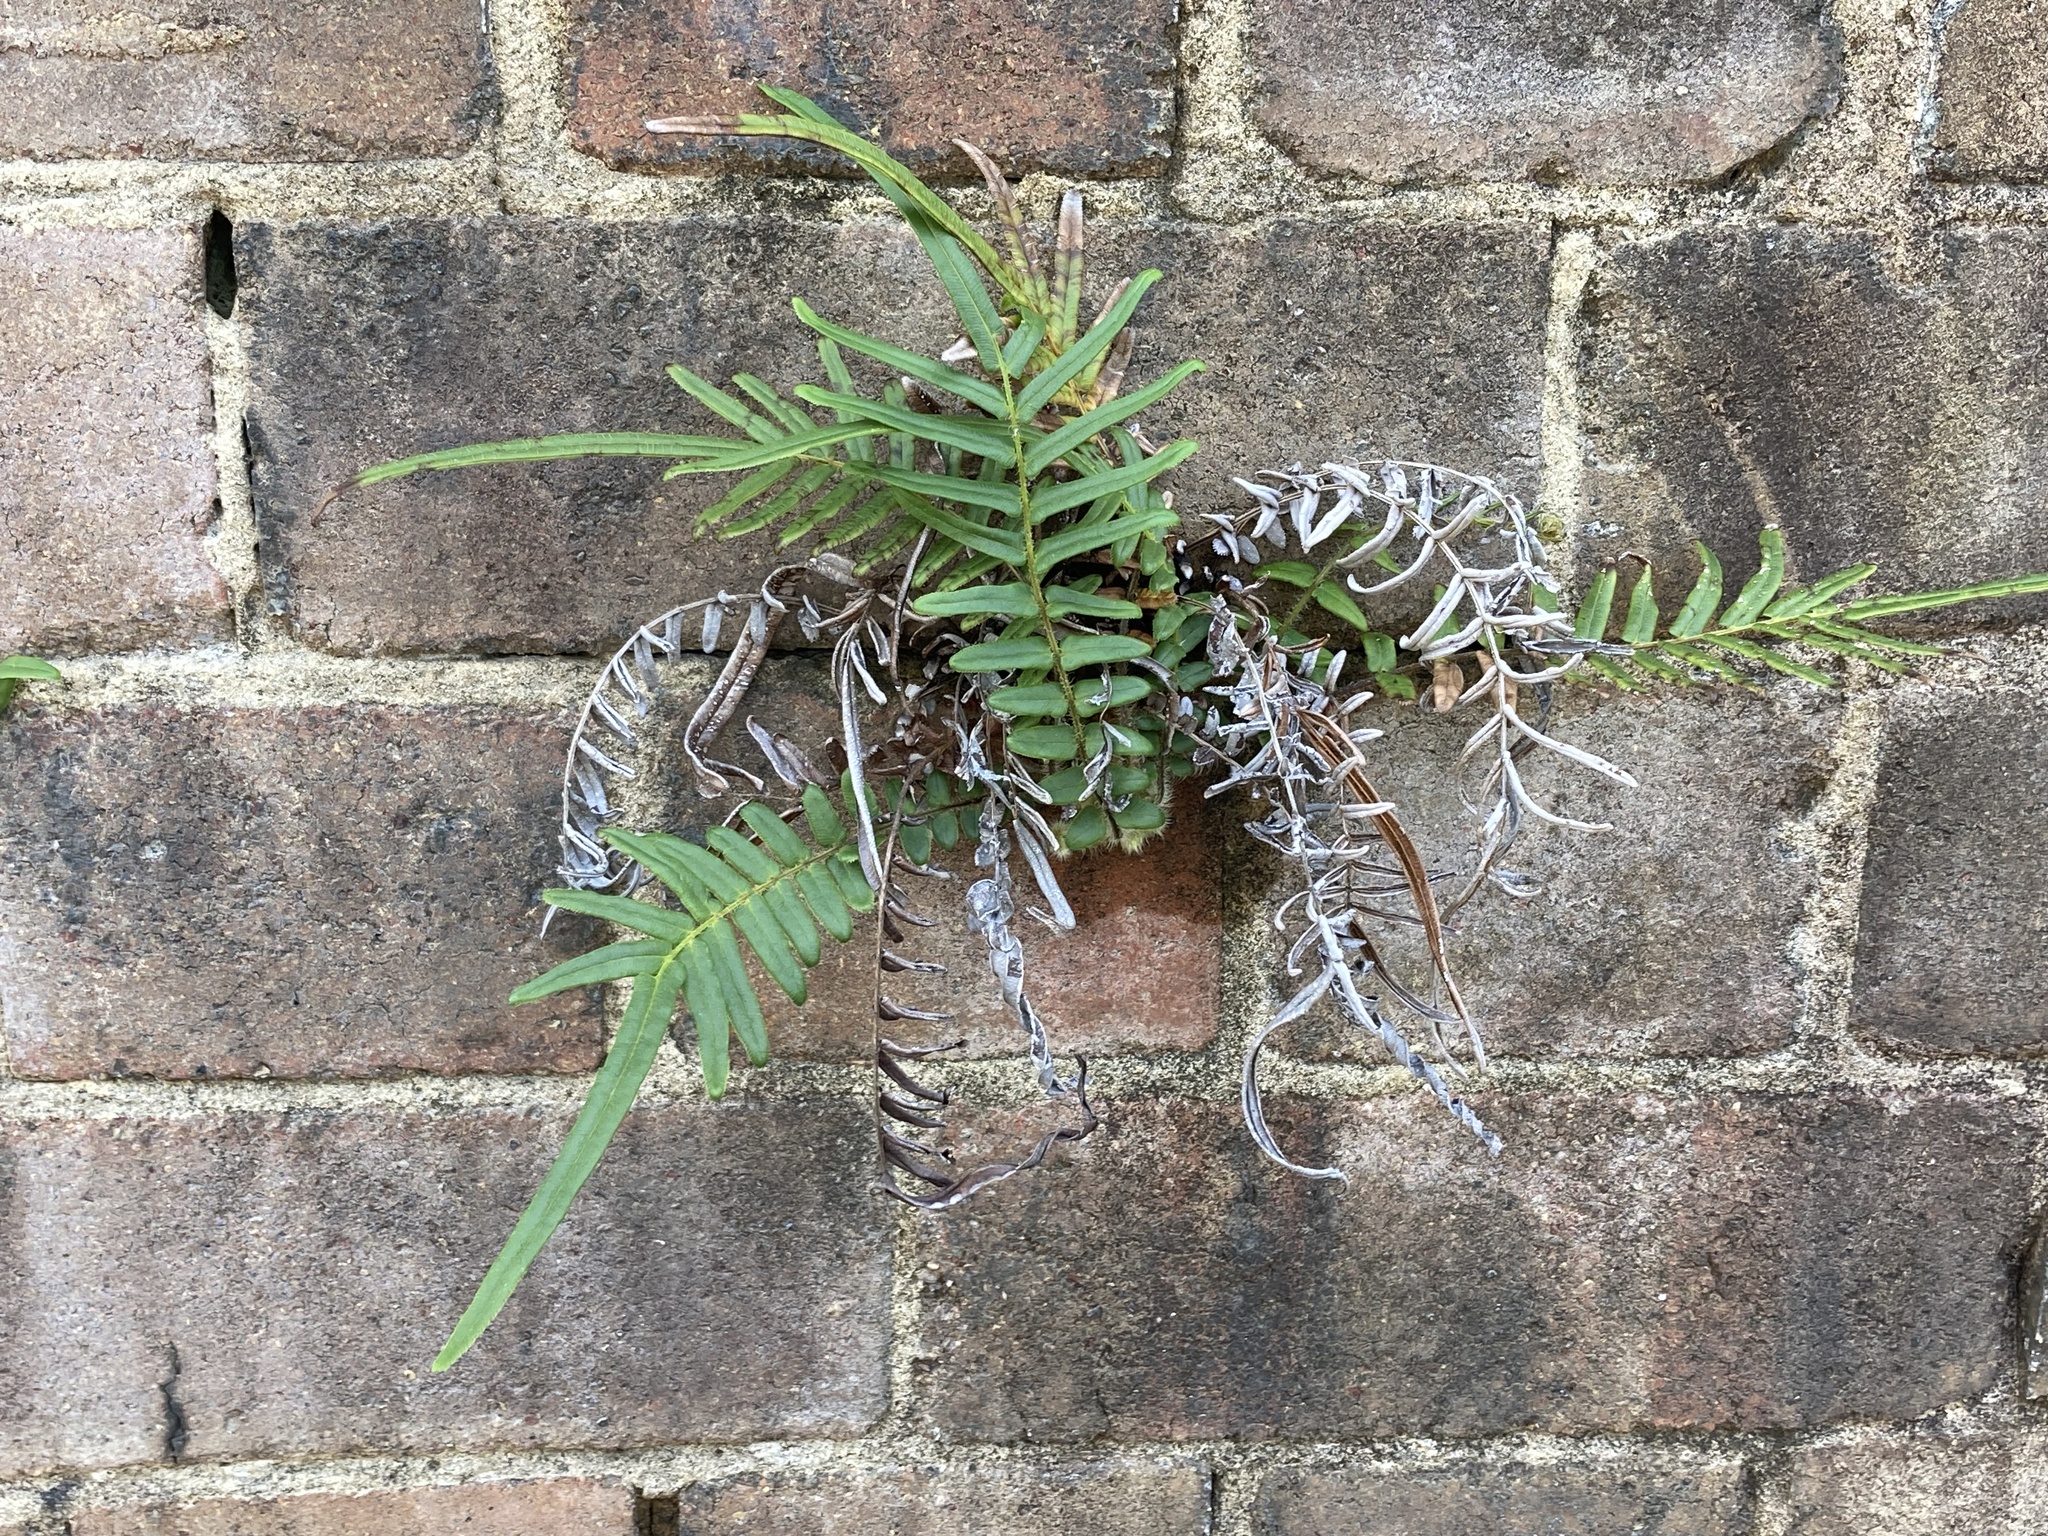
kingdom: Plantae
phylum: Tracheophyta
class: Polypodiopsida
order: Polypodiales
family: Pteridaceae
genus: Pteris
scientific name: Pteris vittata
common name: Ladder brake
